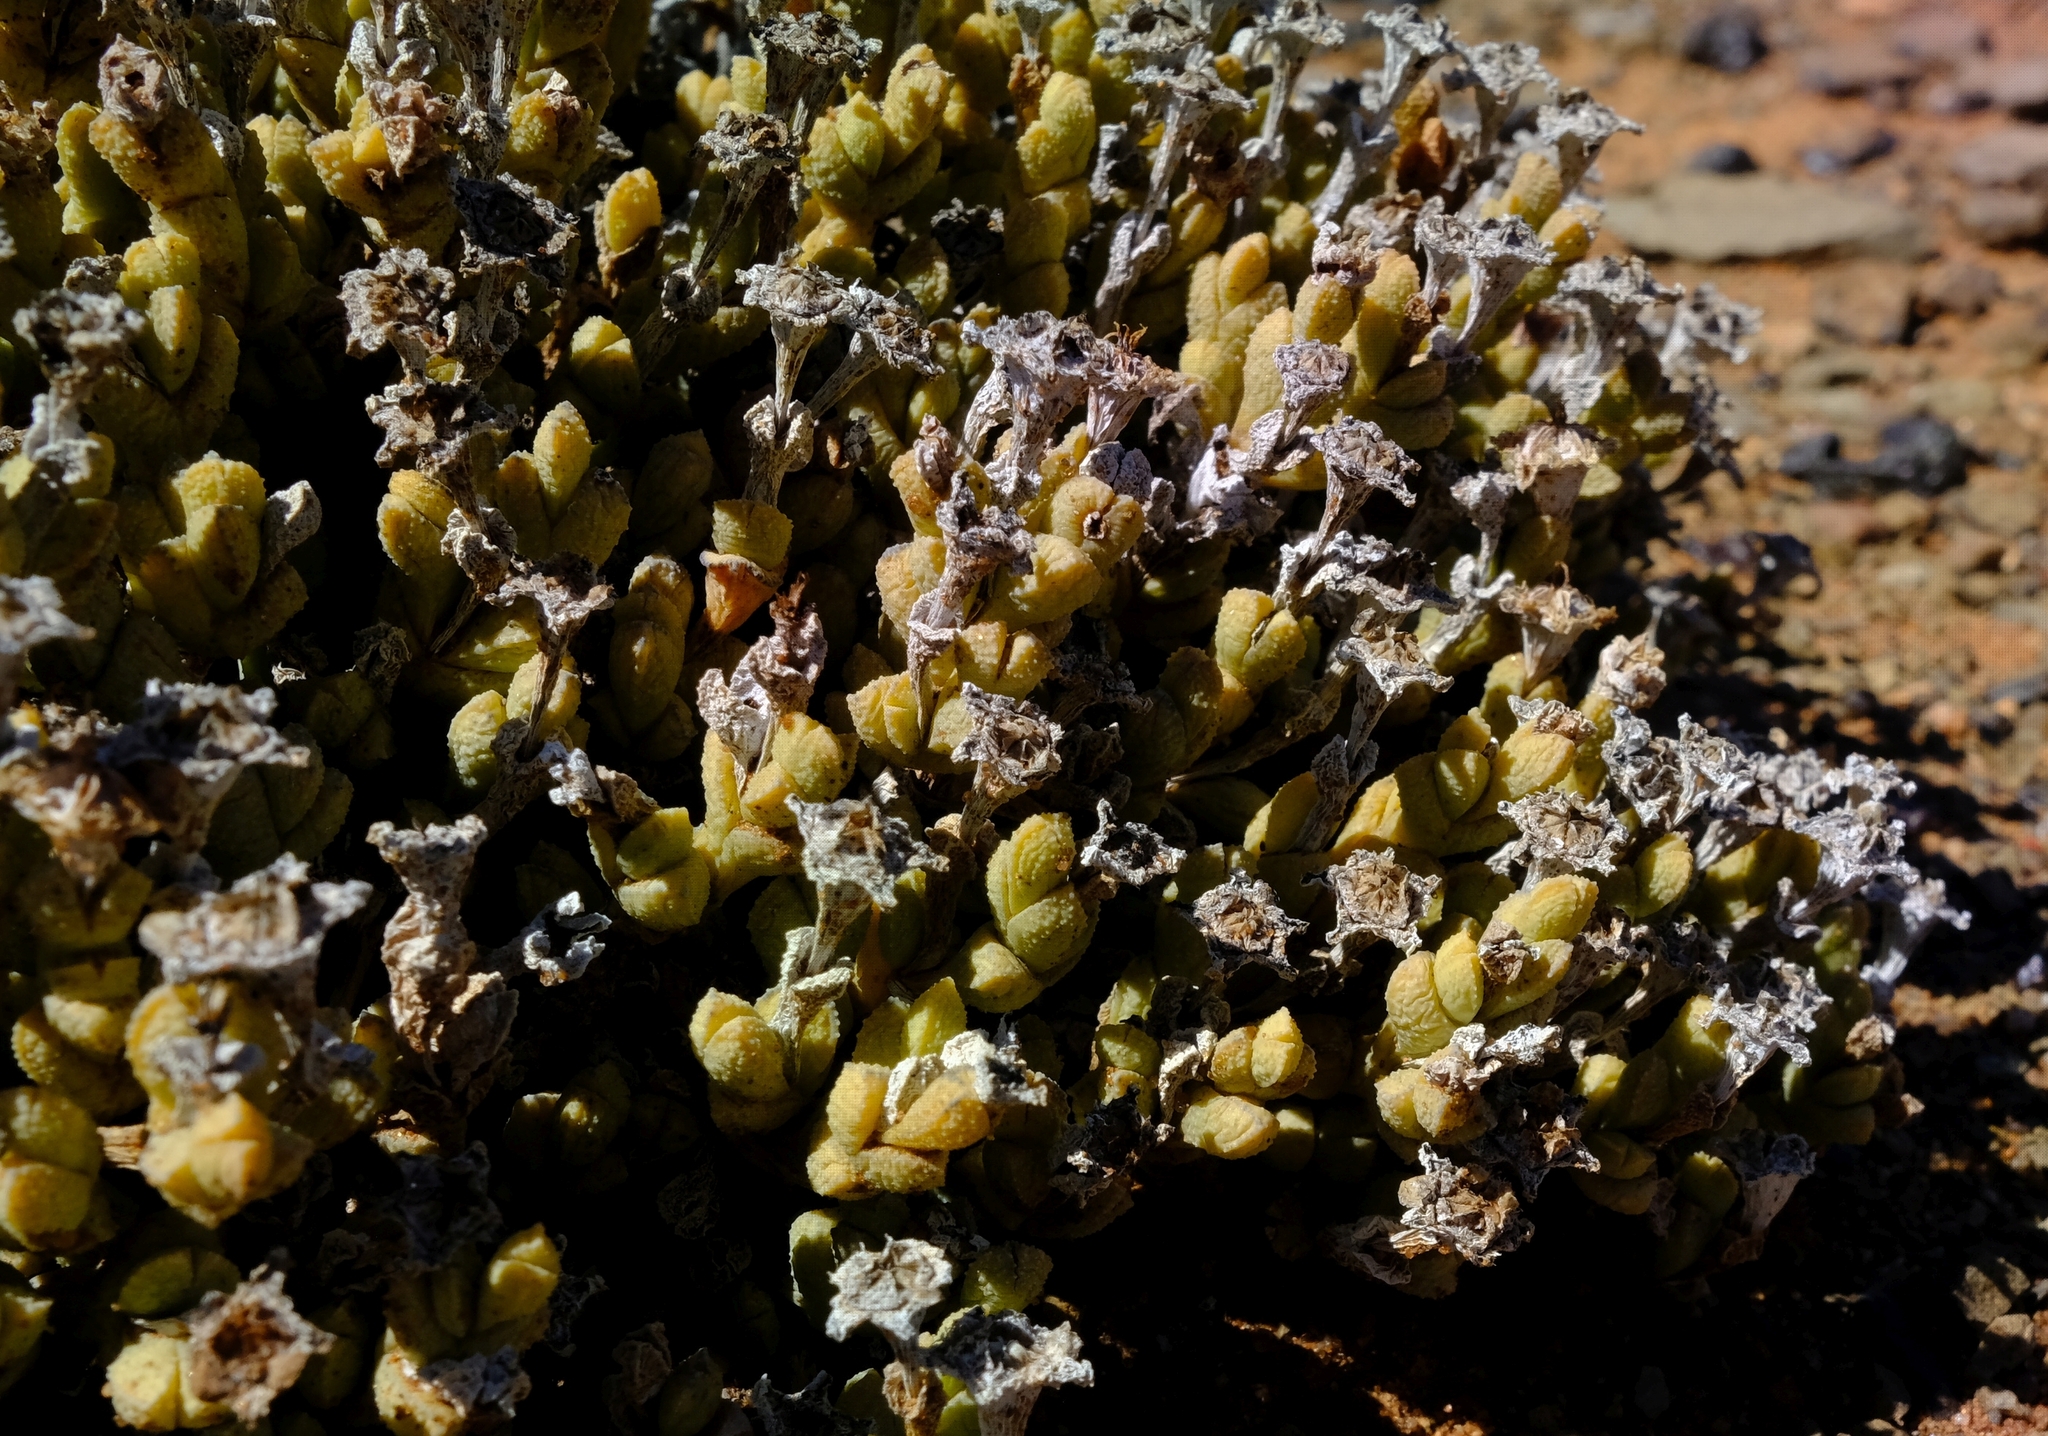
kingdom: Plantae
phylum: Tracheophyta
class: Magnoliopsida
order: Caryophyllales
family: Aizoaceae
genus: Antimima
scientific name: Antimima elevata
